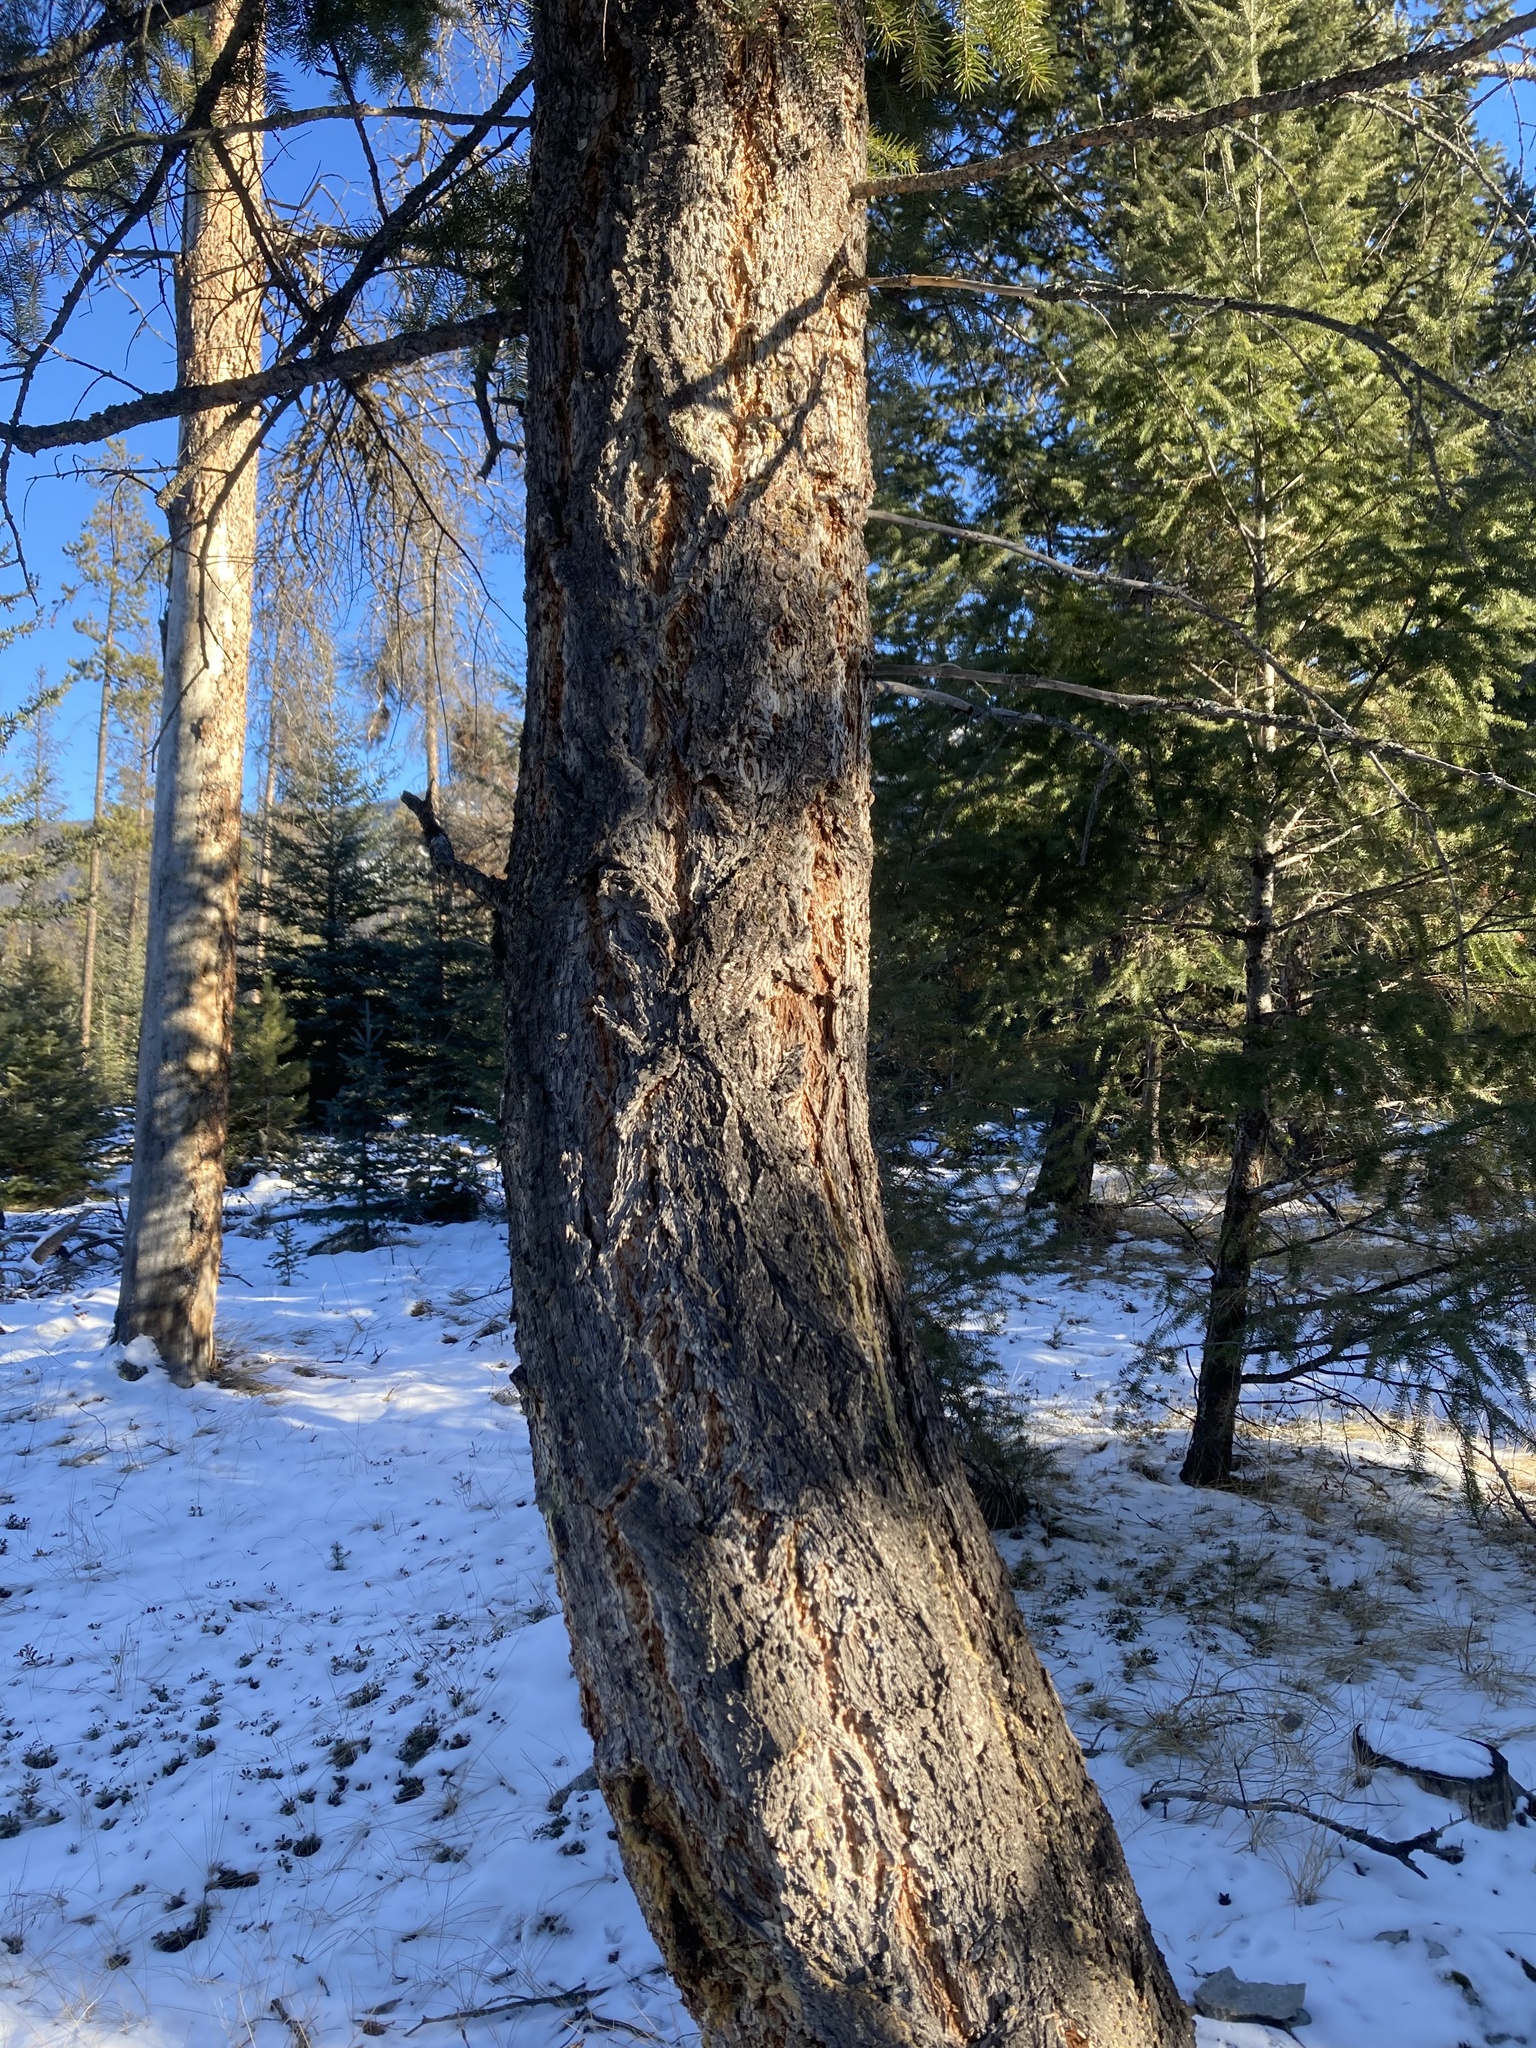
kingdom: Plantae
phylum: Tracheophyta
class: Pinopsida
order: Pinales
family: Pinaceae
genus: Pseudotsuga
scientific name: Pseudotsuga menziesii
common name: Douglas fir
